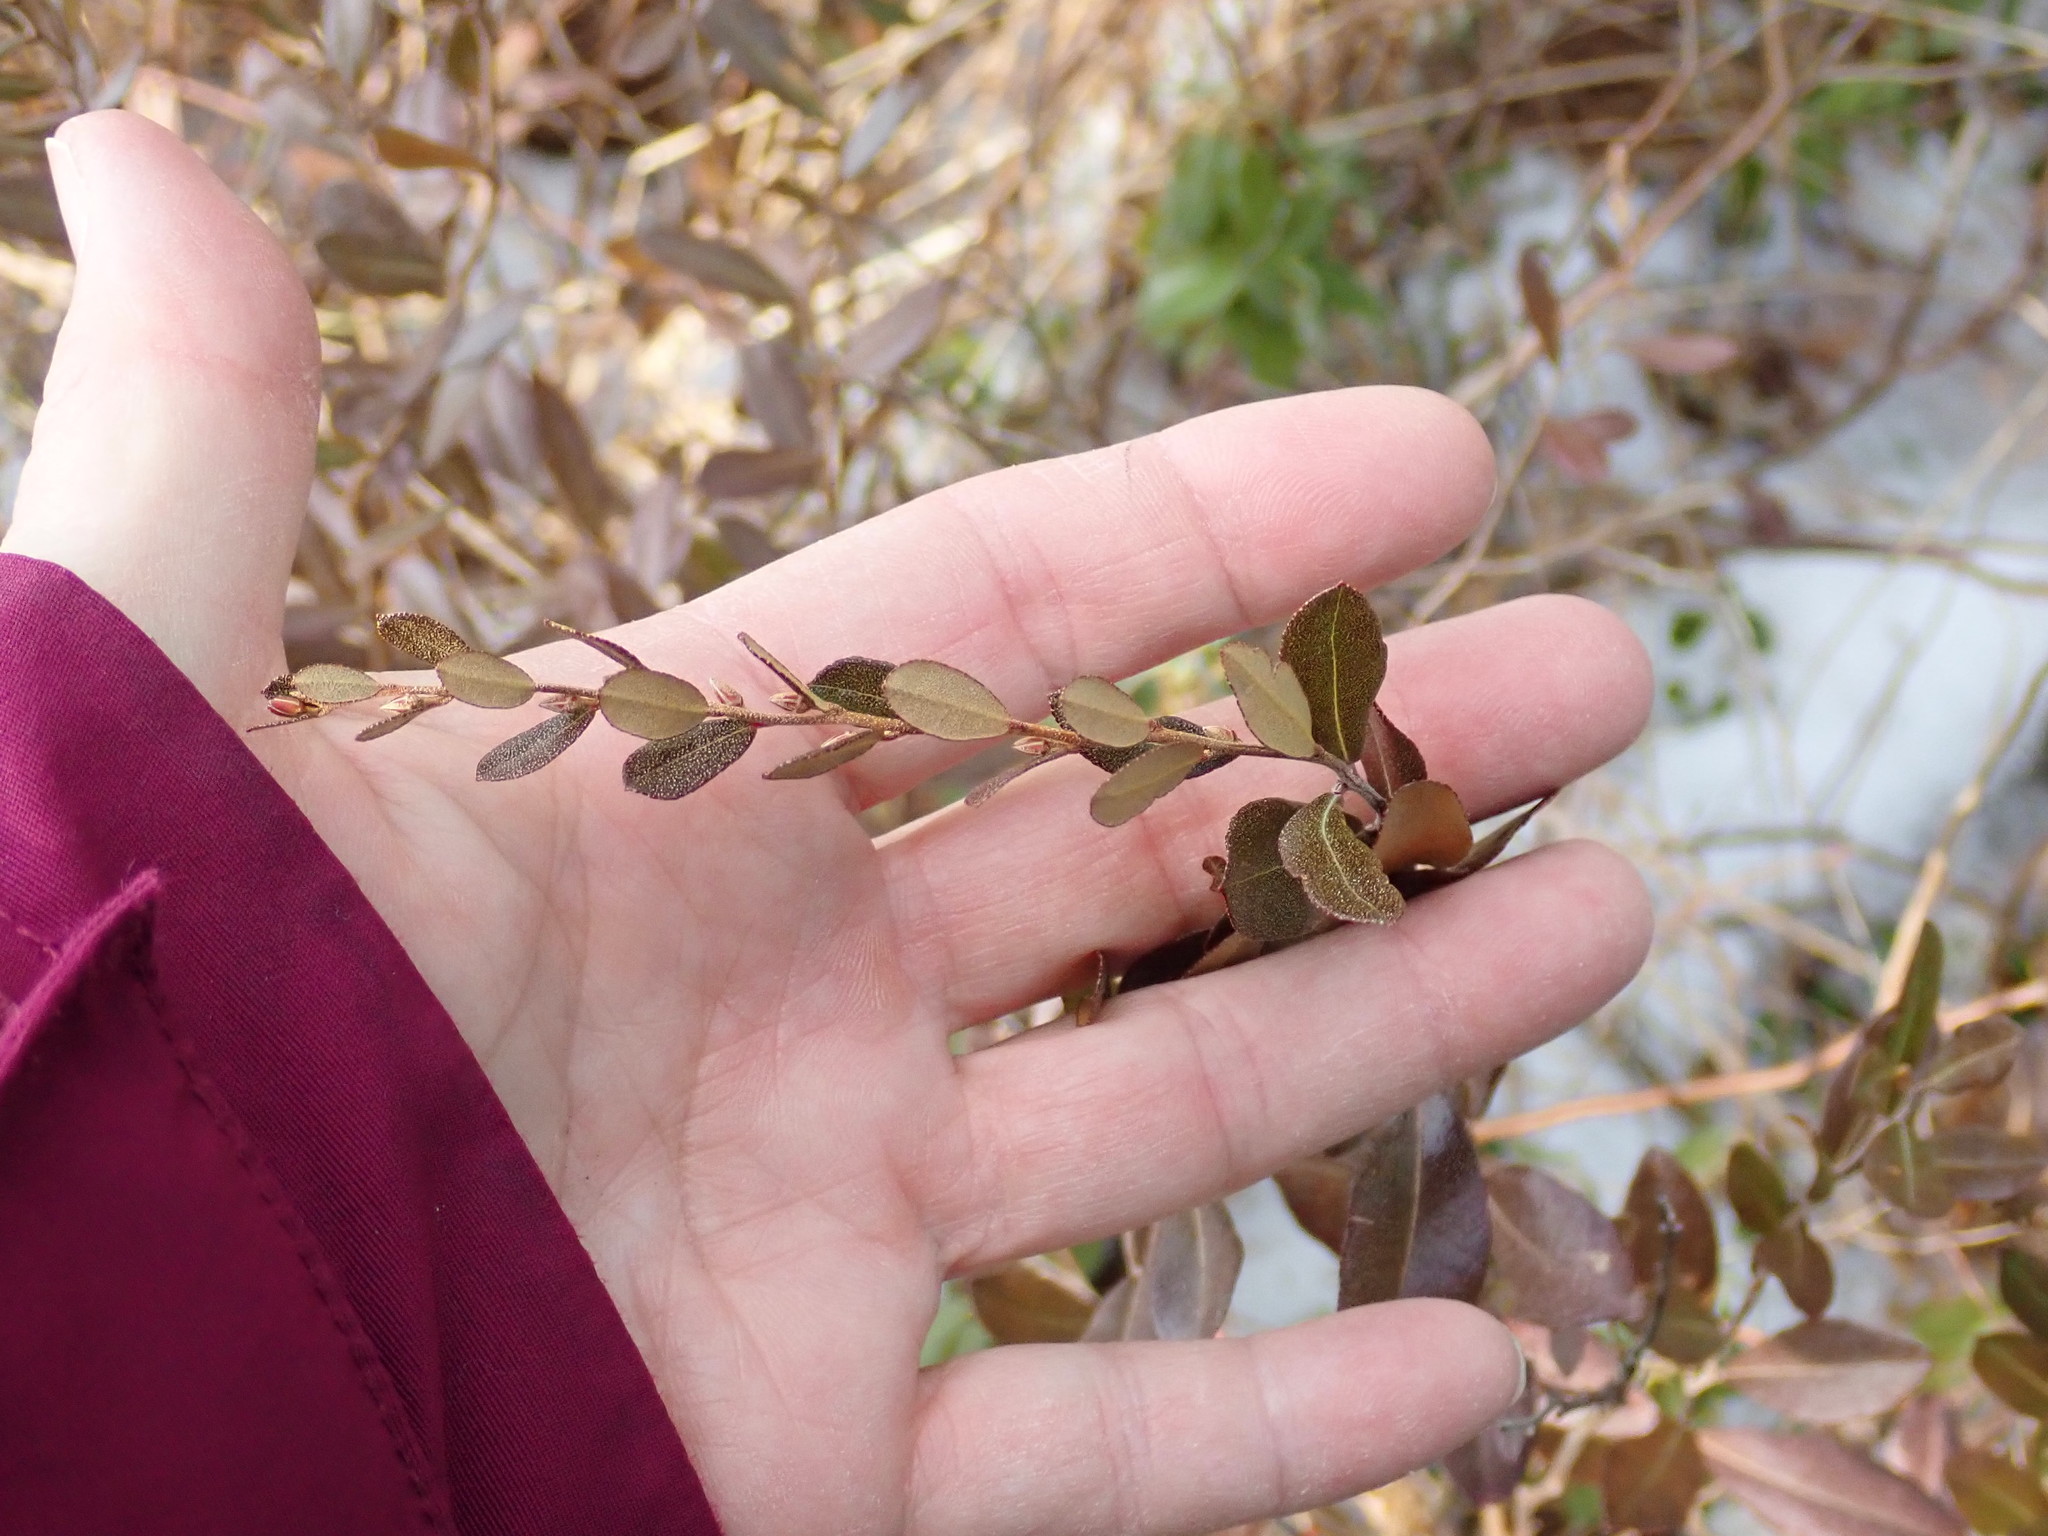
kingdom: Plantae
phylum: Tracheophyta
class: Magnoliopsida
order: Ericales
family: Ericaceae
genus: Chamaedaphne
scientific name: Chamaedaphne calyculata
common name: Leatherleaf
